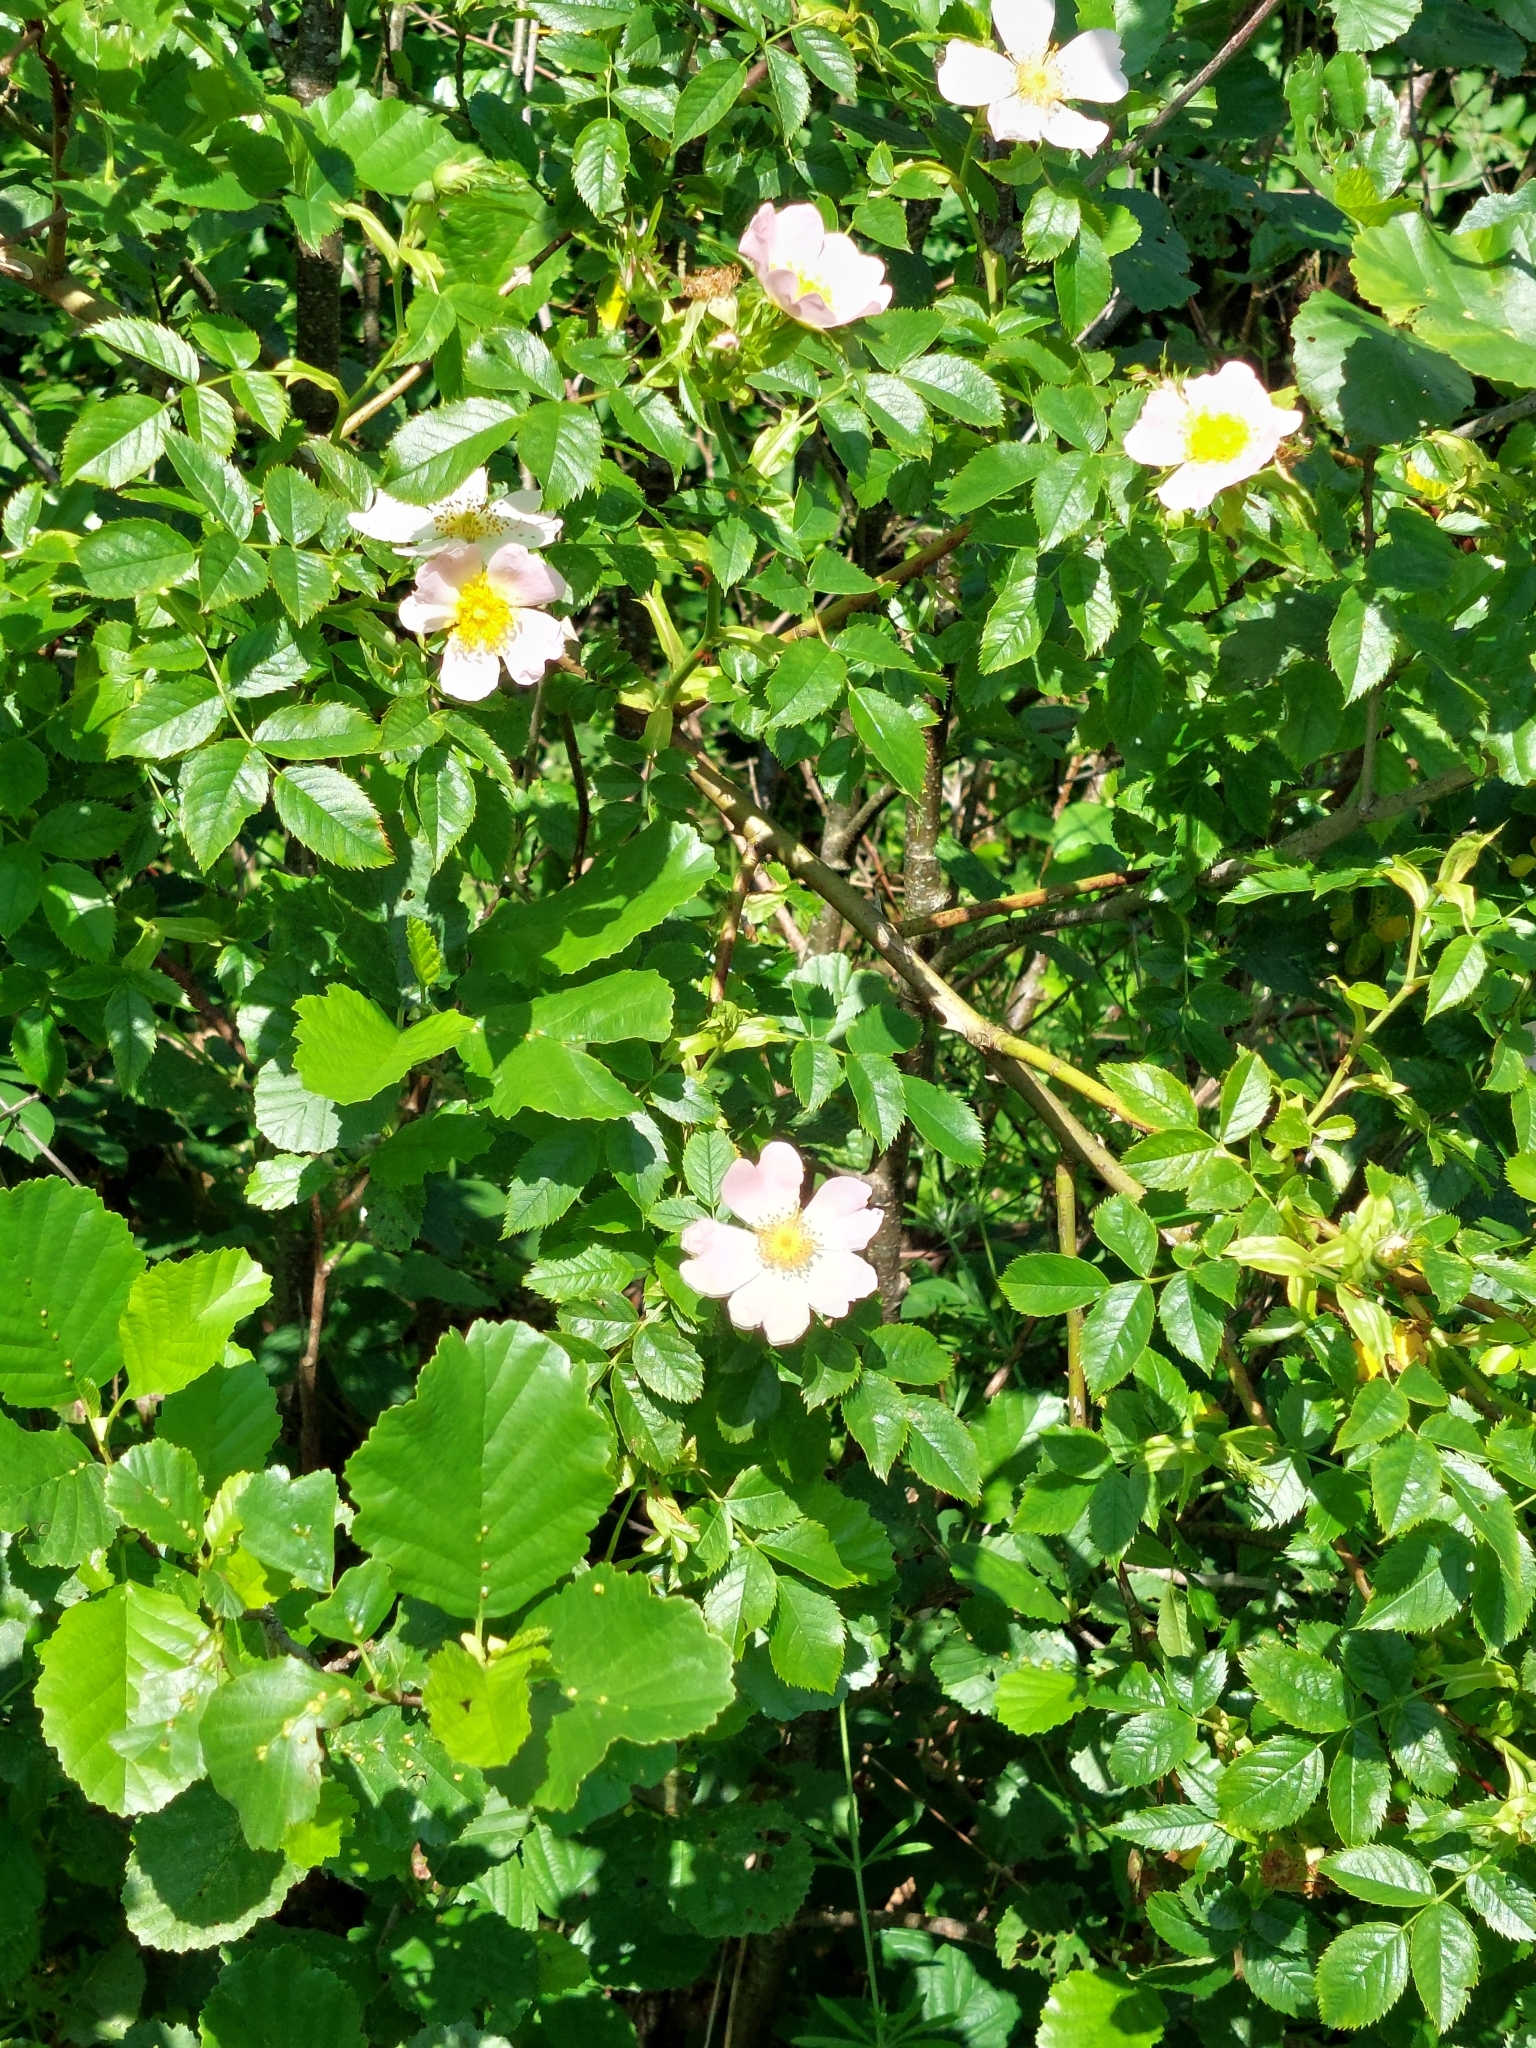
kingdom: Plantae
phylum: Tracheophyta
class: Magnoliopsida
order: Rosales
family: Rosaceae
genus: Rosa
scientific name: Rosa canina
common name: Dog rose
